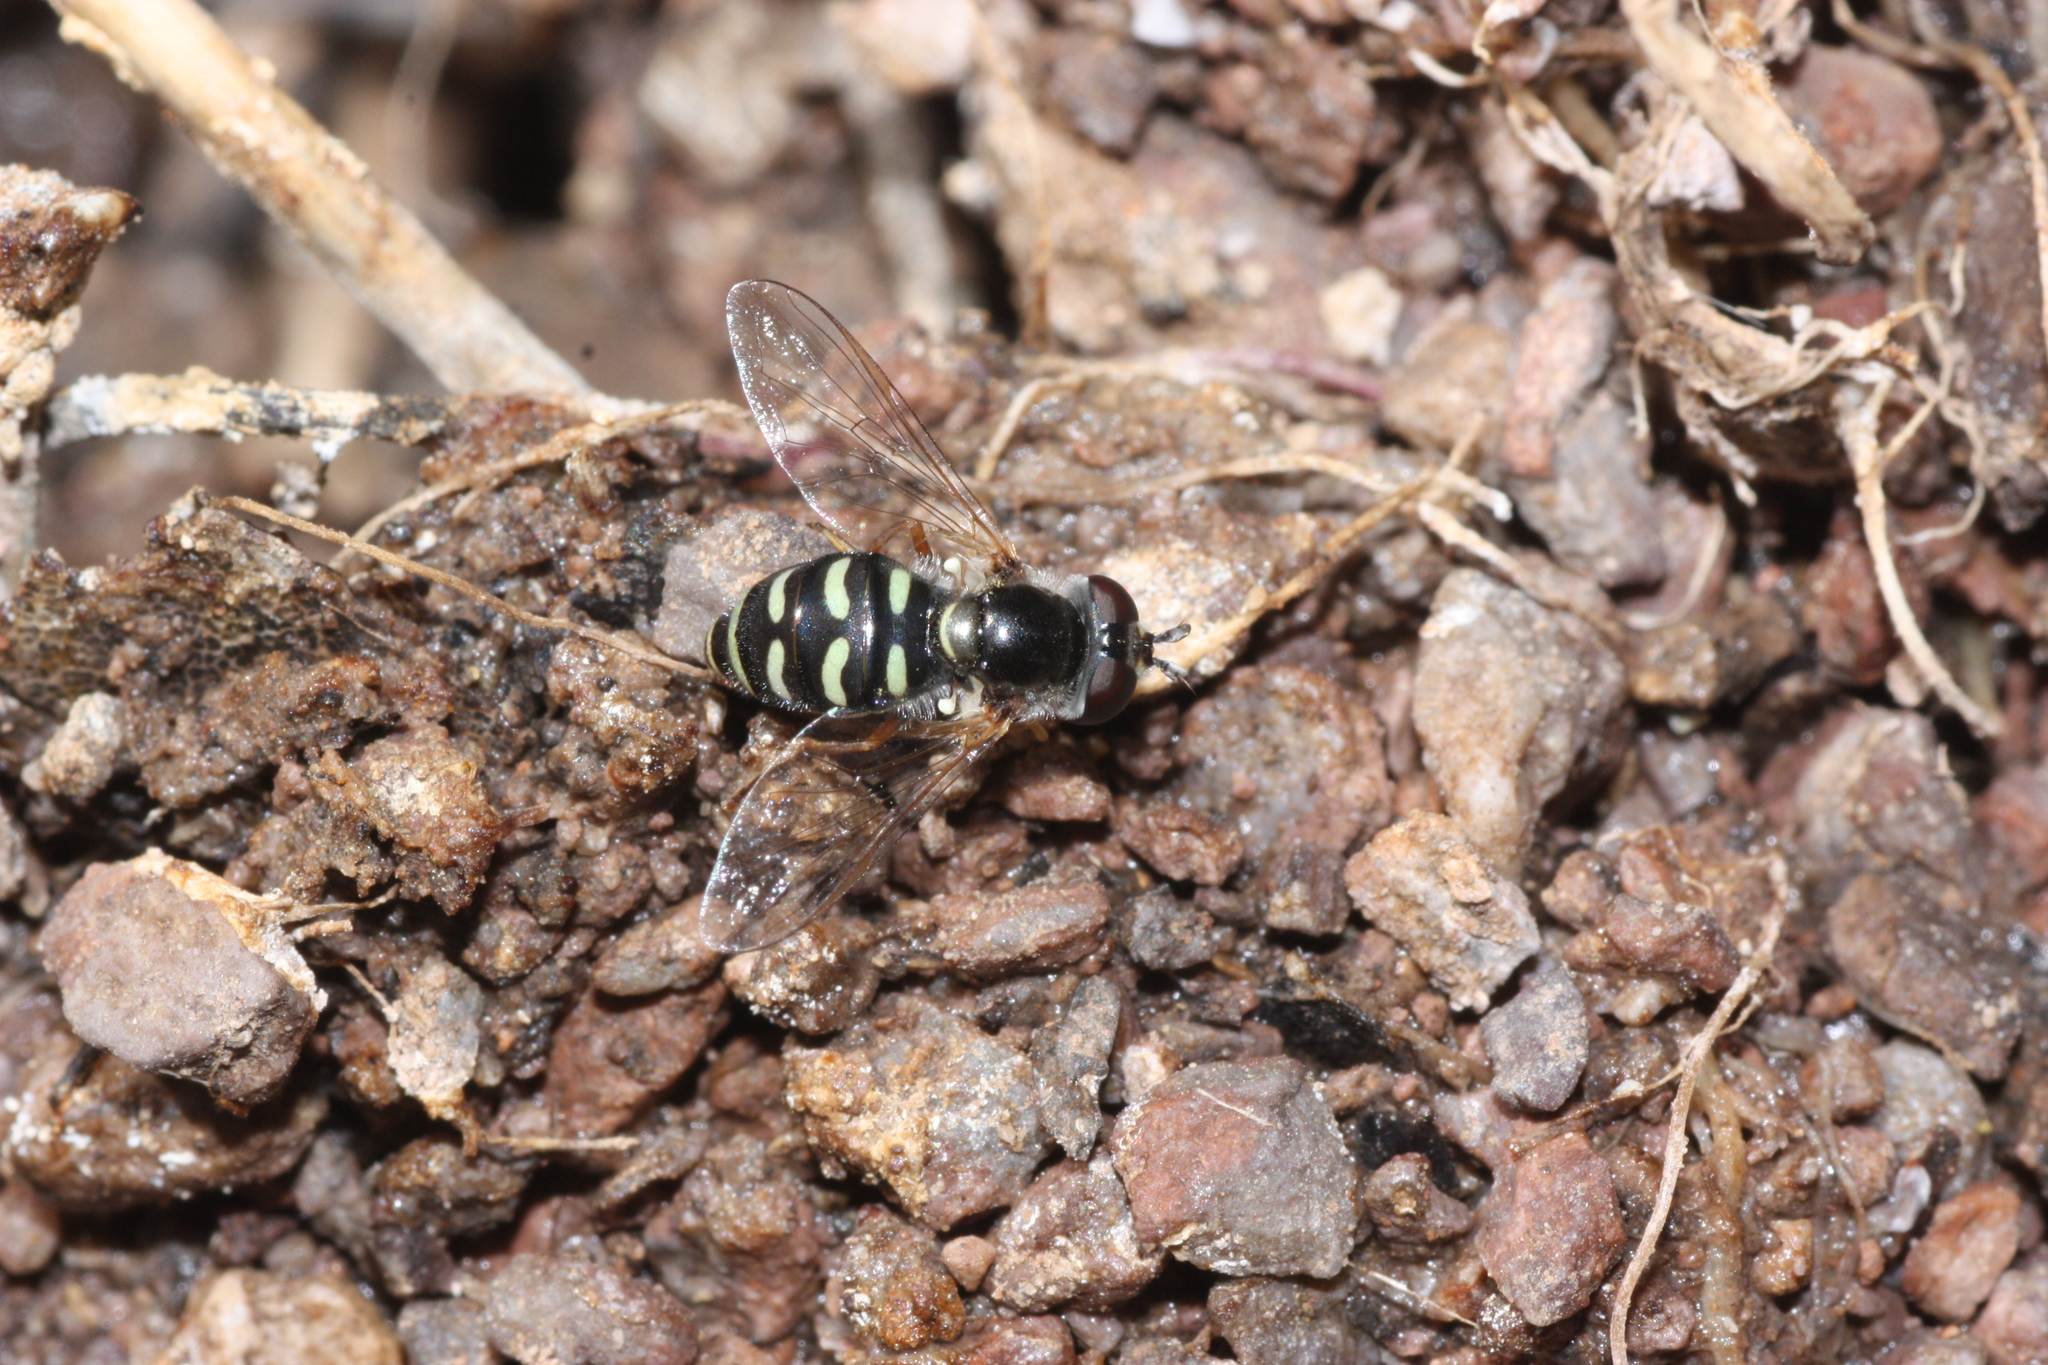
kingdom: Animalia
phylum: Arthropoda
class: Insecta
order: Diptera
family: Syrphidae
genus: Eupeodes
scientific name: Eupeodes volucris
